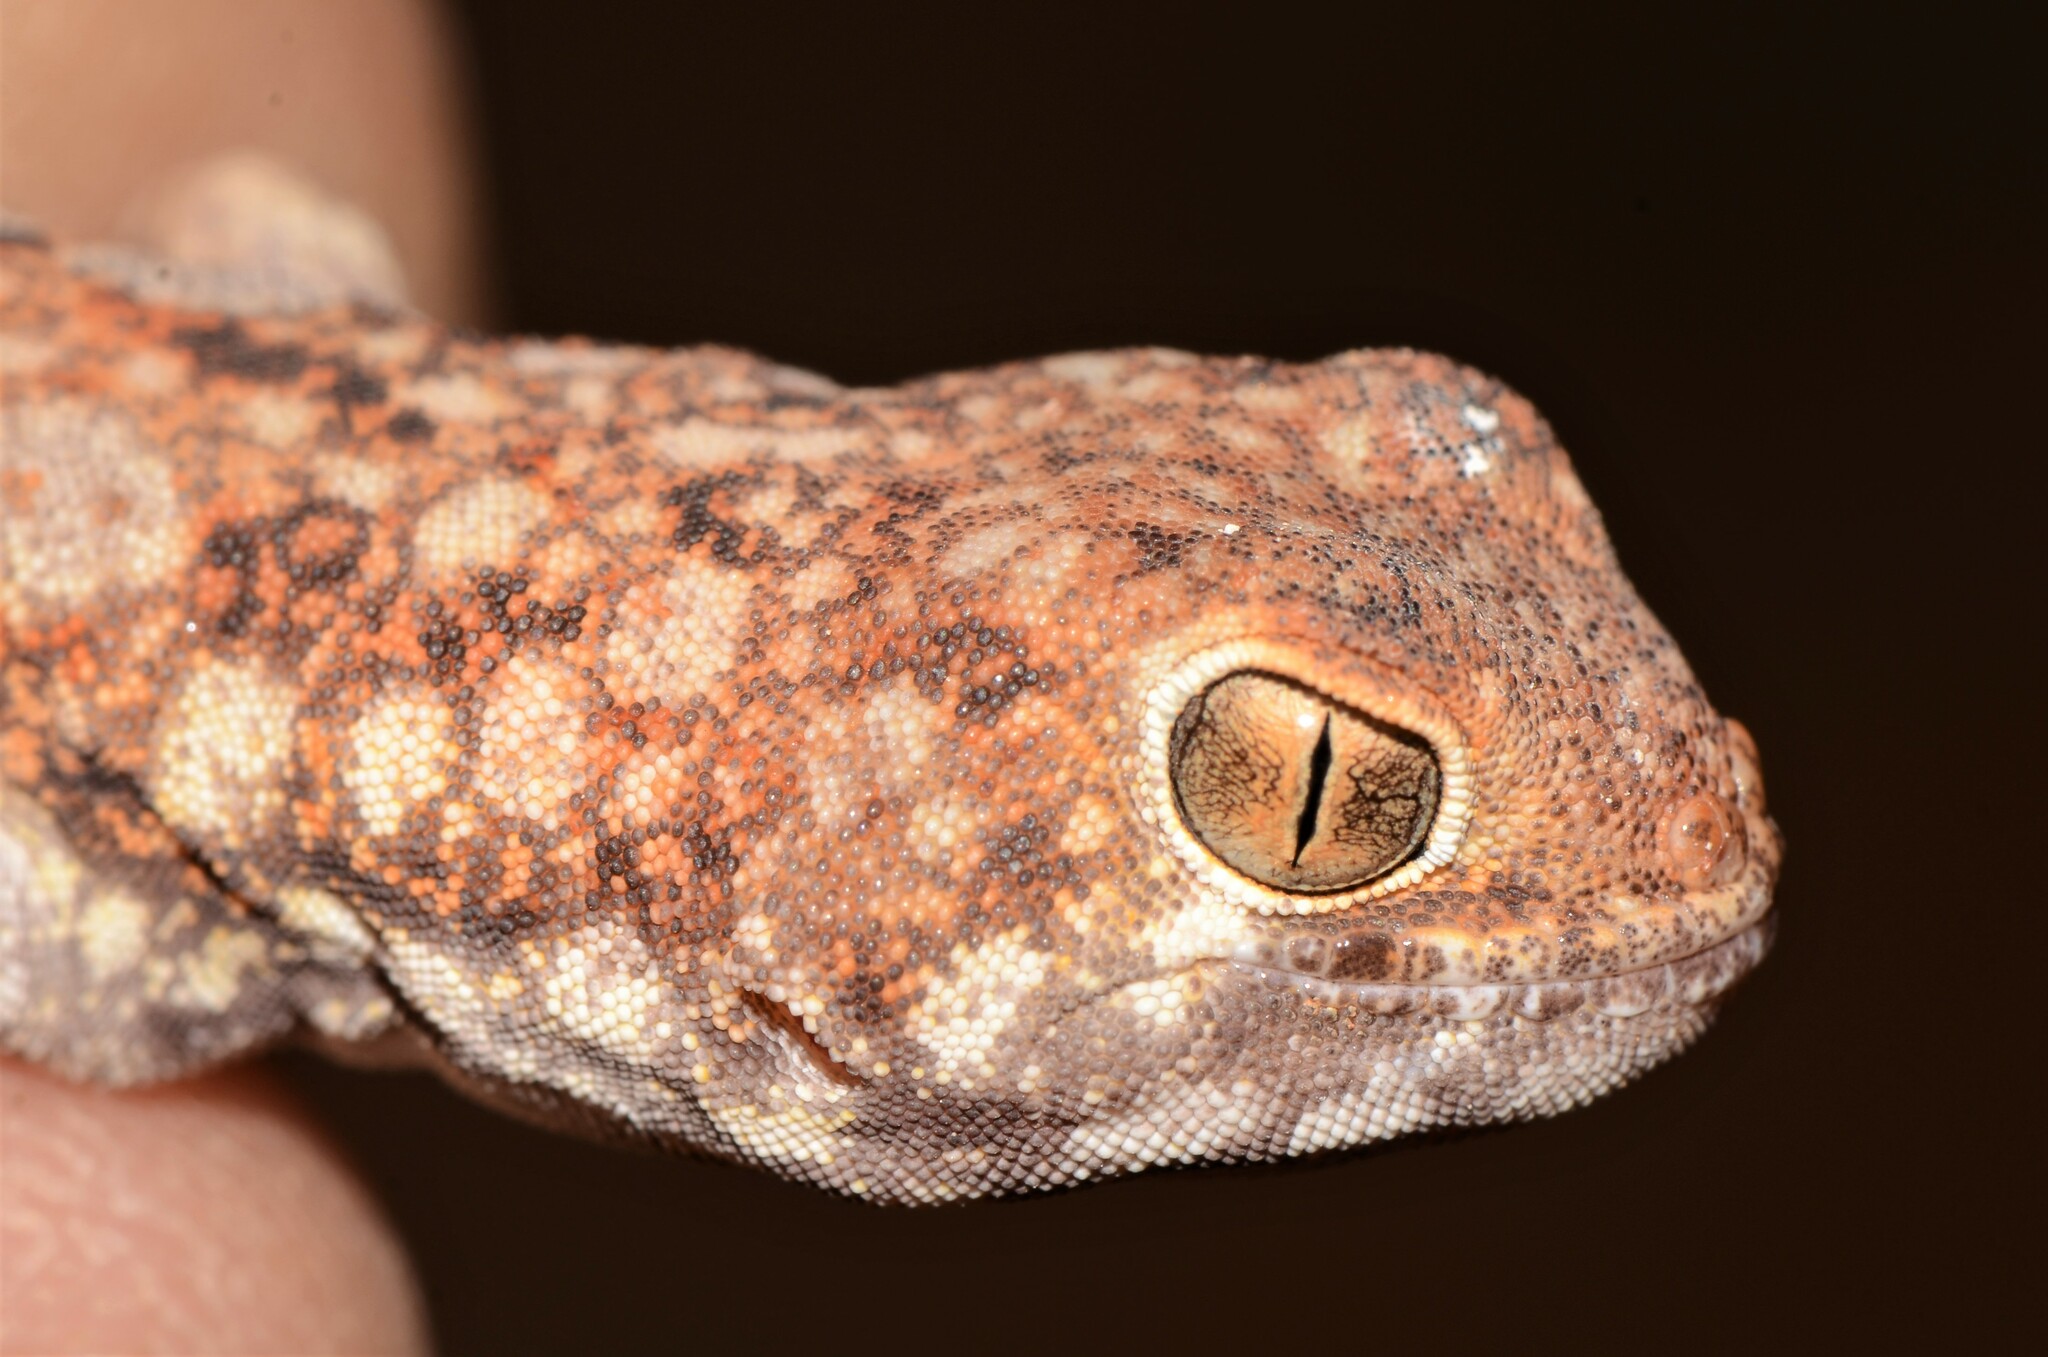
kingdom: Animalia
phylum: Chordata
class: Squamata
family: Gekkonidae
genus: Ptenopus
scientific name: Ptenopus garrulus
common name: Whistling gecko
